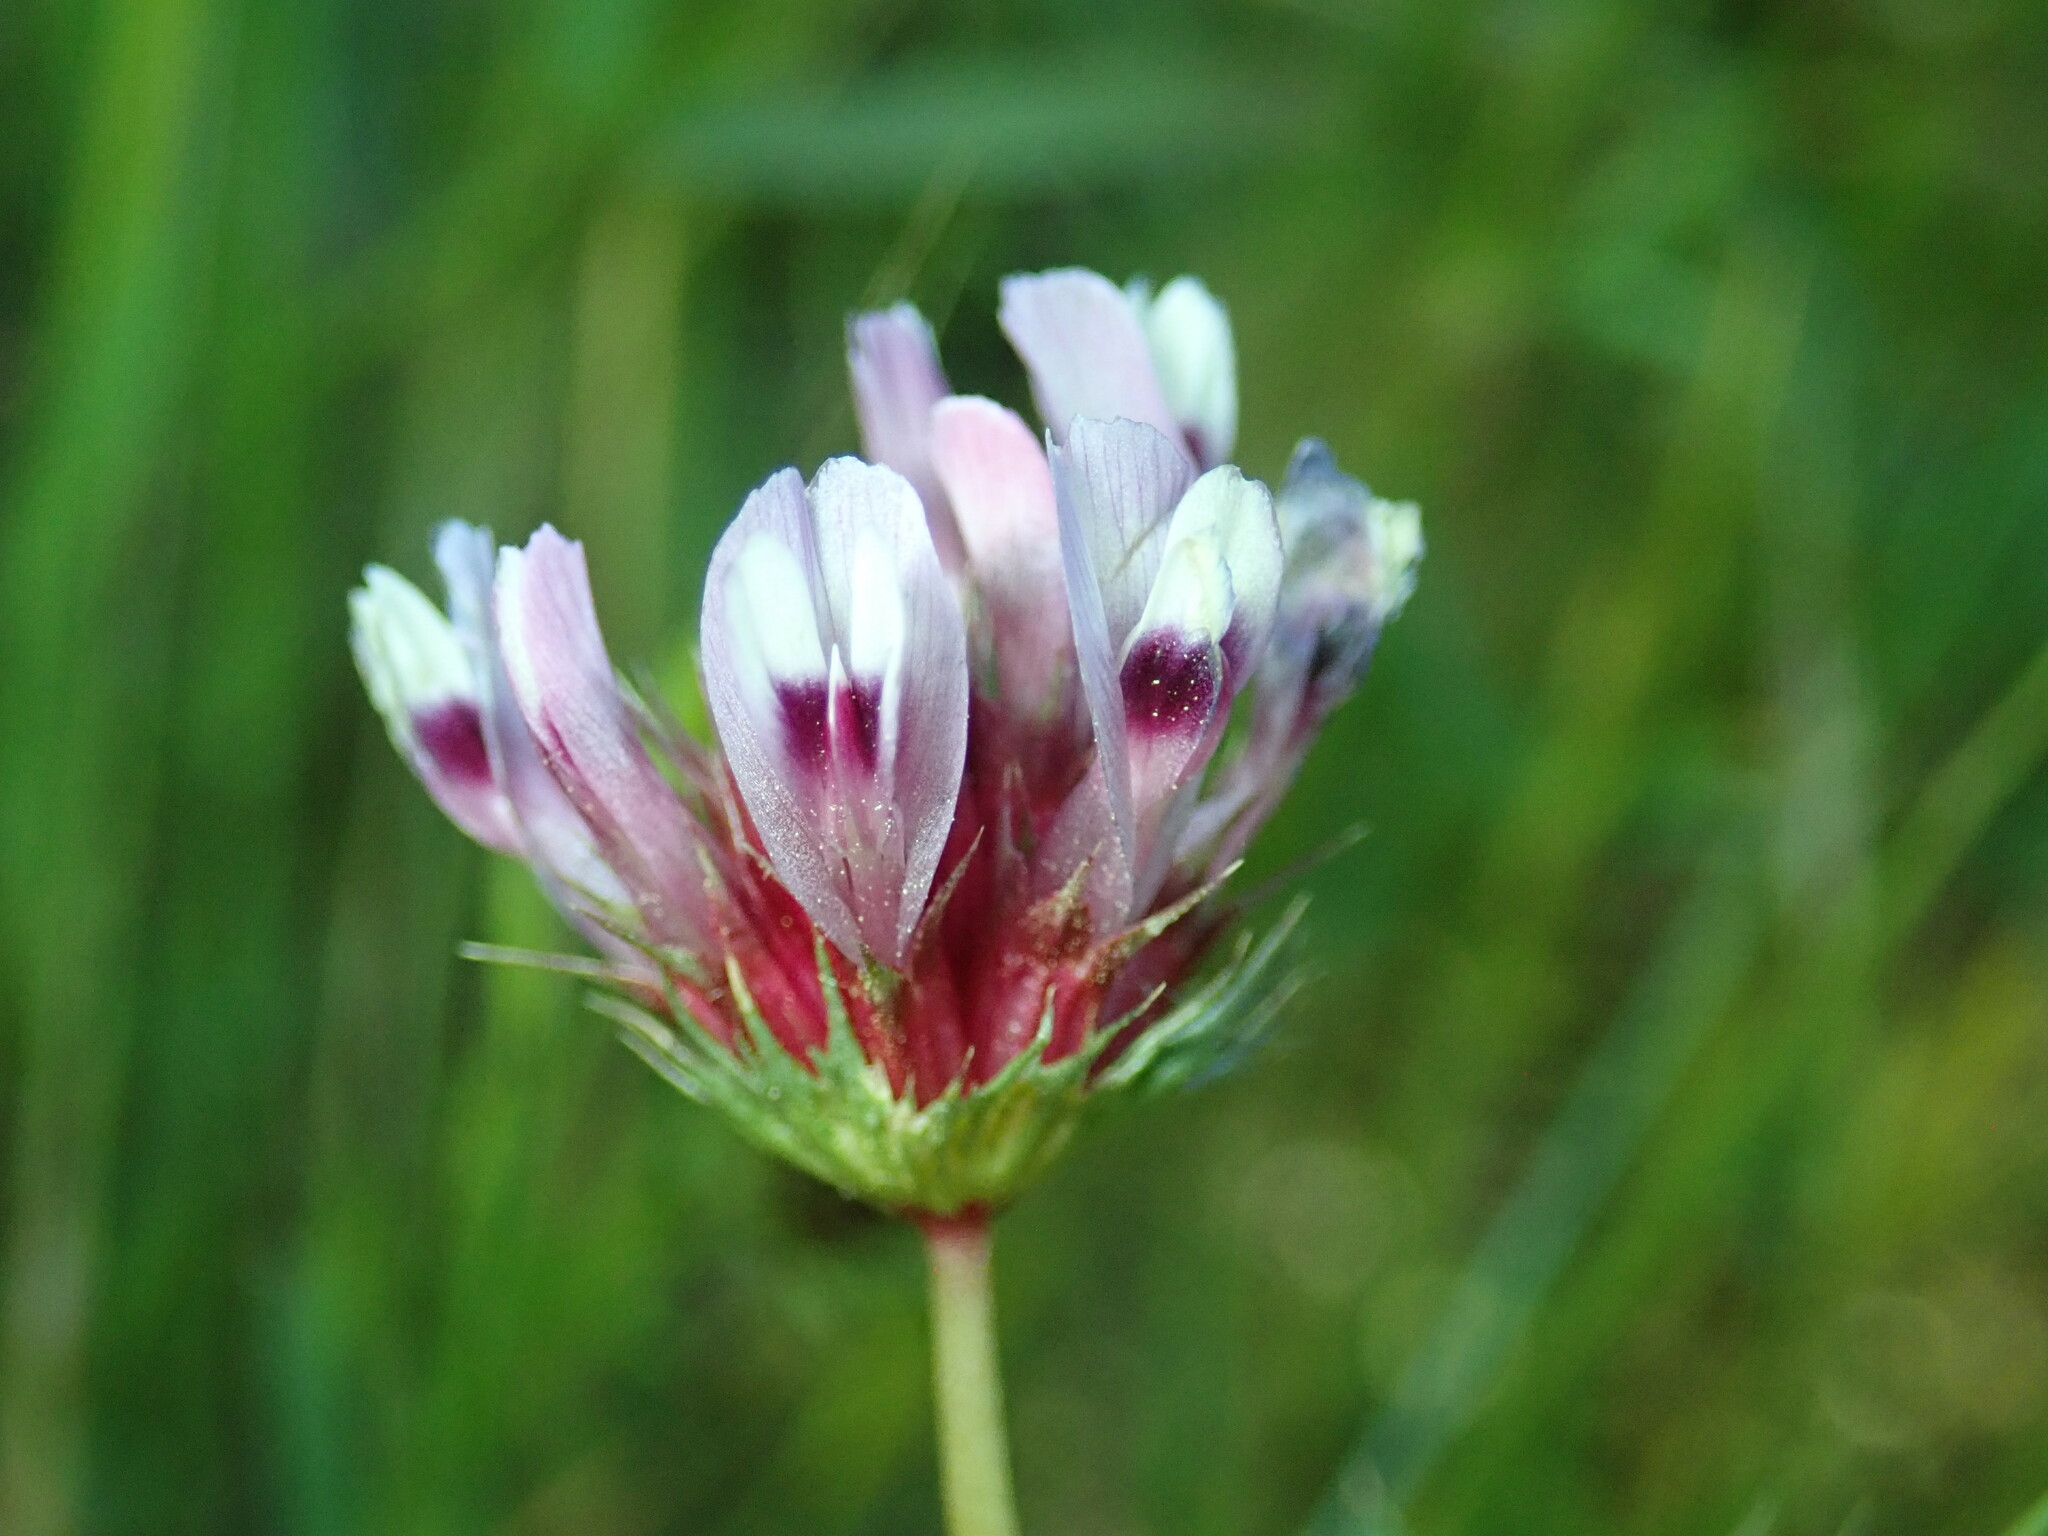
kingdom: Plantae
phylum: Tracheophyta
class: Magnoliopsida
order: Fabales
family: Fabaceae
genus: Trifolium
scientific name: Trifolium willdenovii
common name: Tomcat clover
